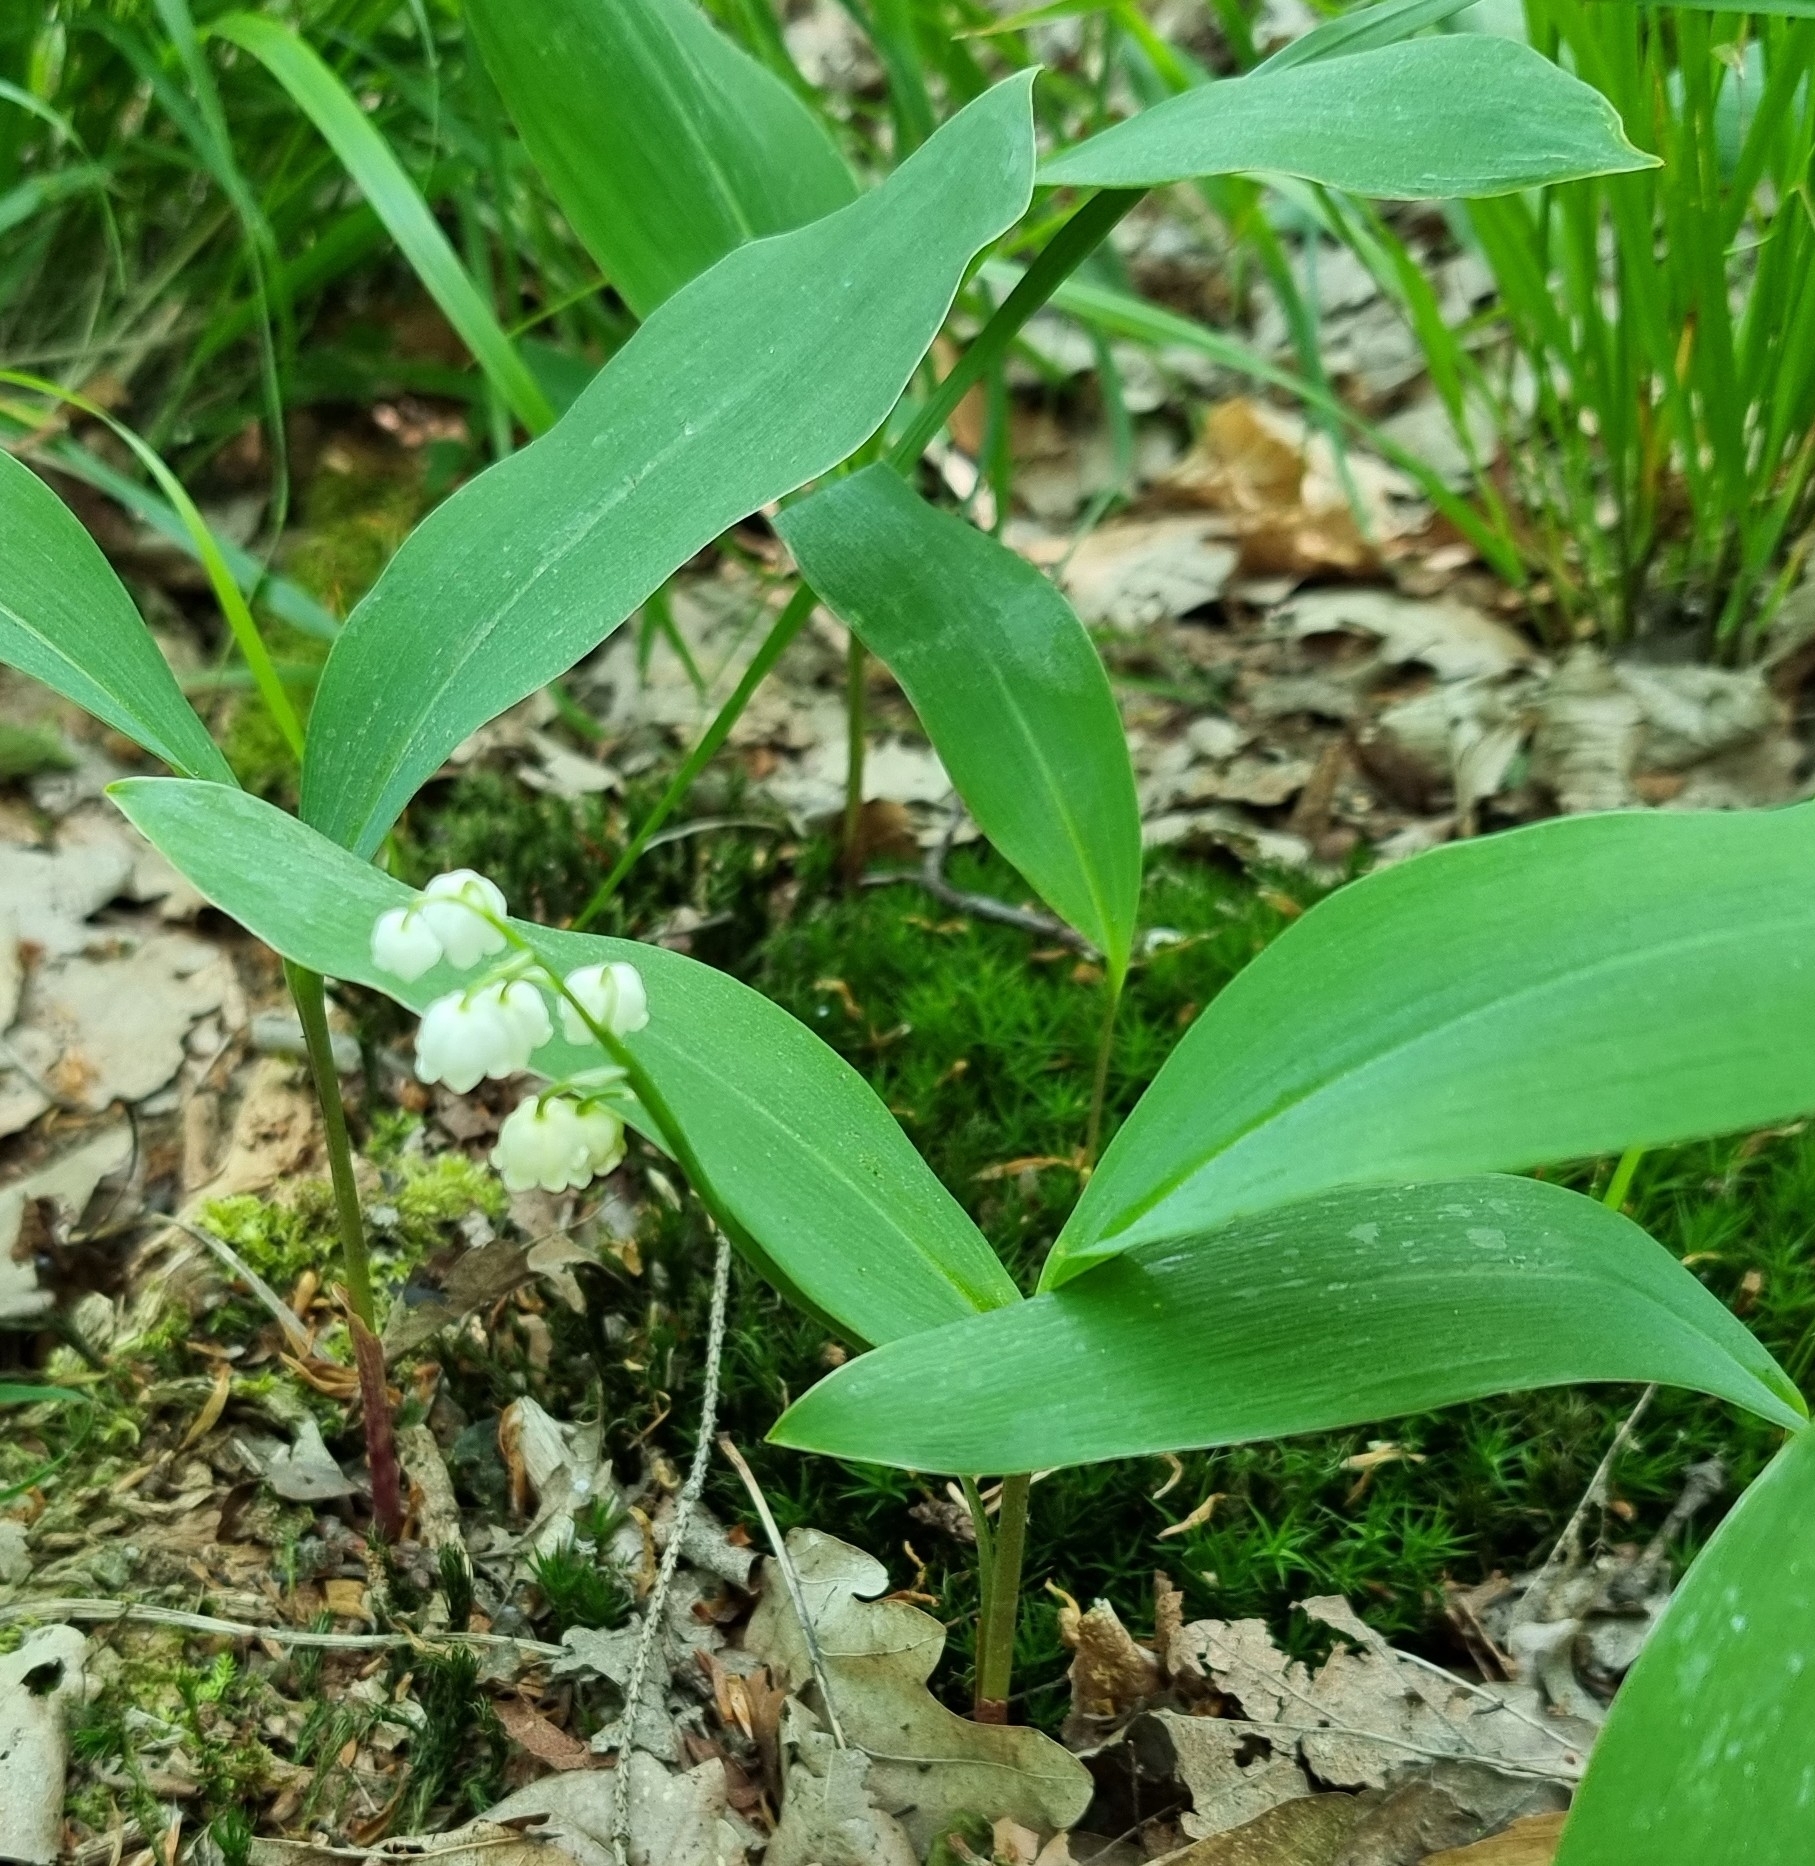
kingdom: Plantae
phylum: Tracheophyta
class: Liliopsida
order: Asparagales
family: Asparagaceae
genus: Convallaria
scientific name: Convallaria majalis
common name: Lily-of-the-valley
